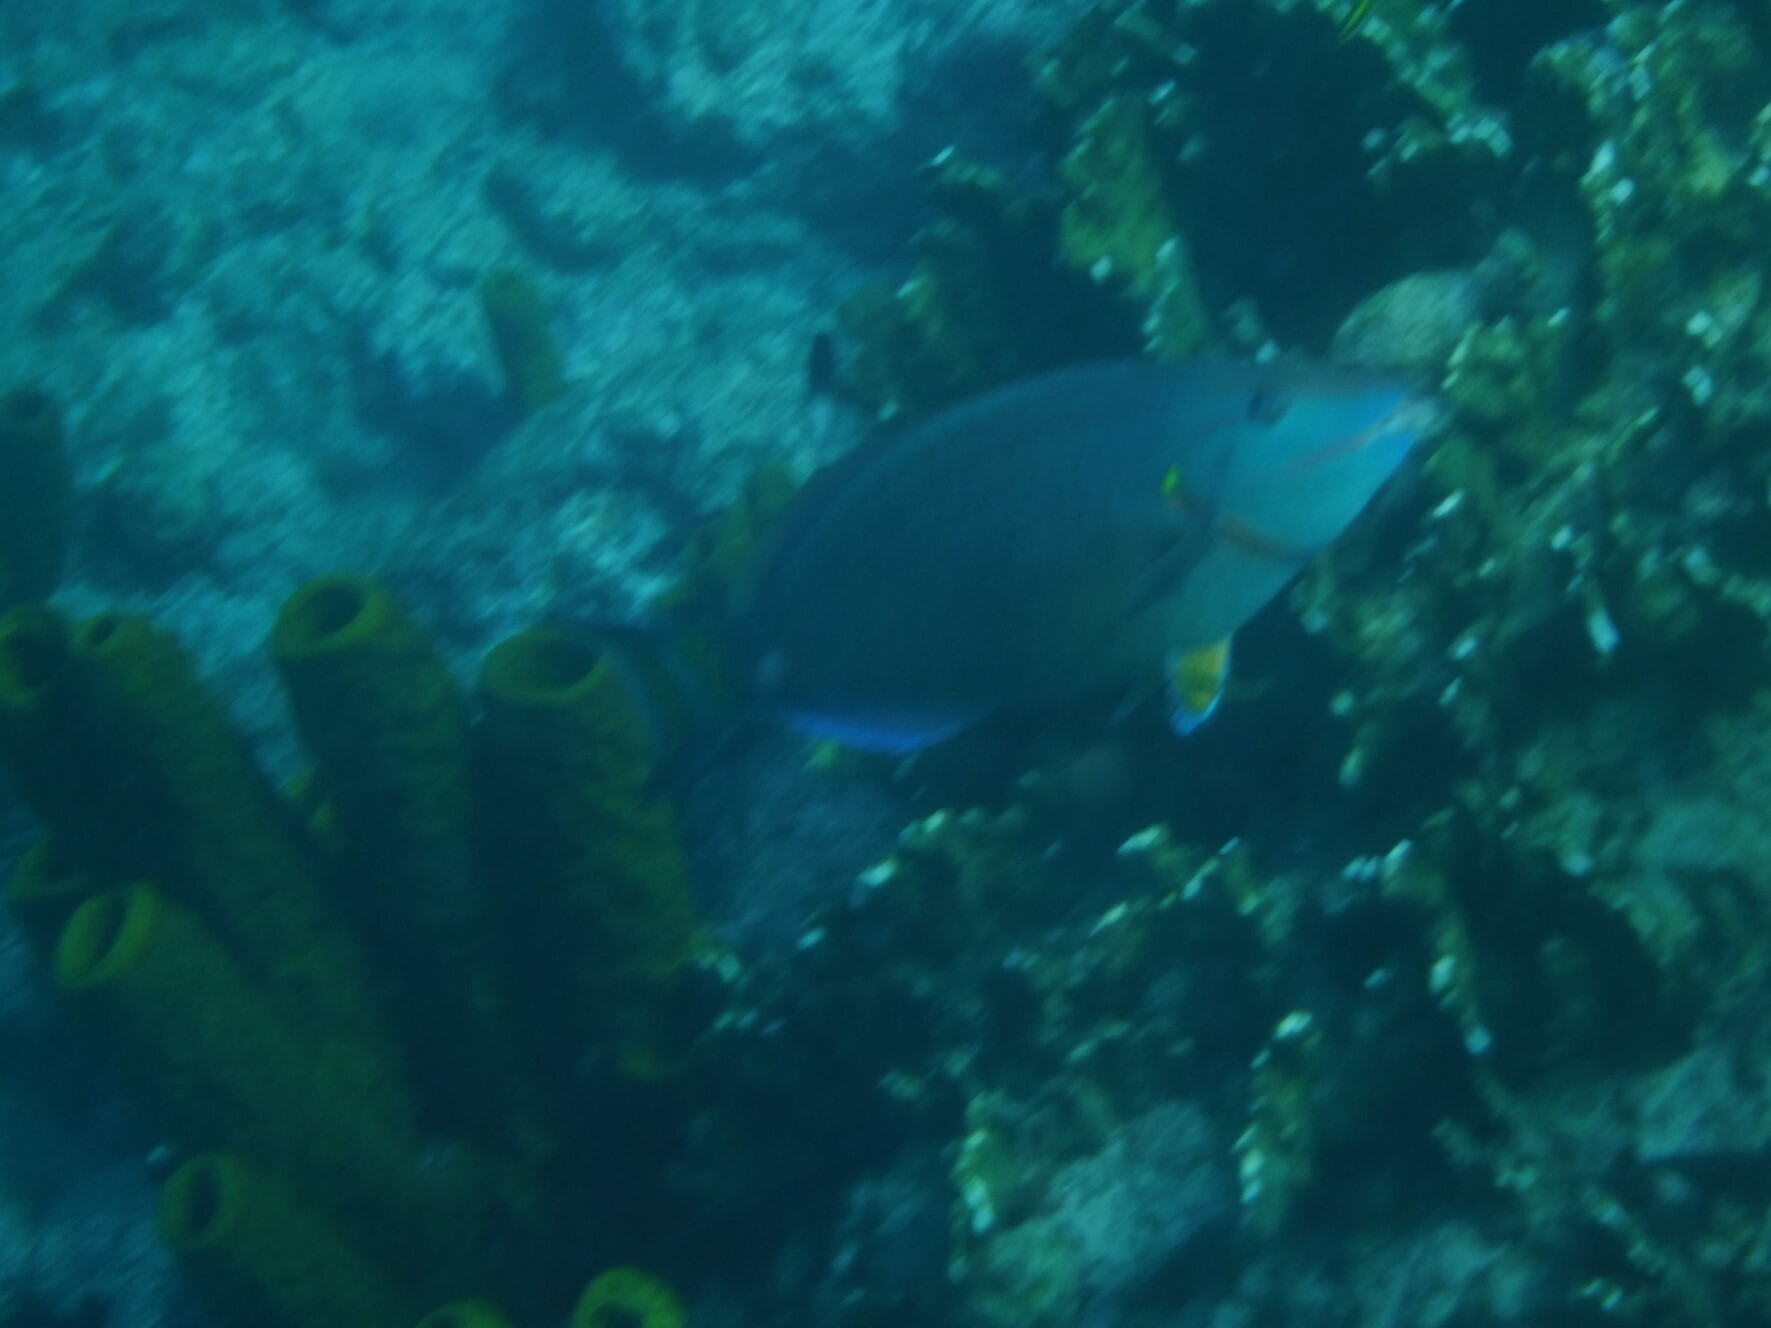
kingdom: Animalia
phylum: Chordata
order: Perciformes
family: Scaridae
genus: Sparisoma
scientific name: Sparisoma viride
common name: Stoplight parrotfish
